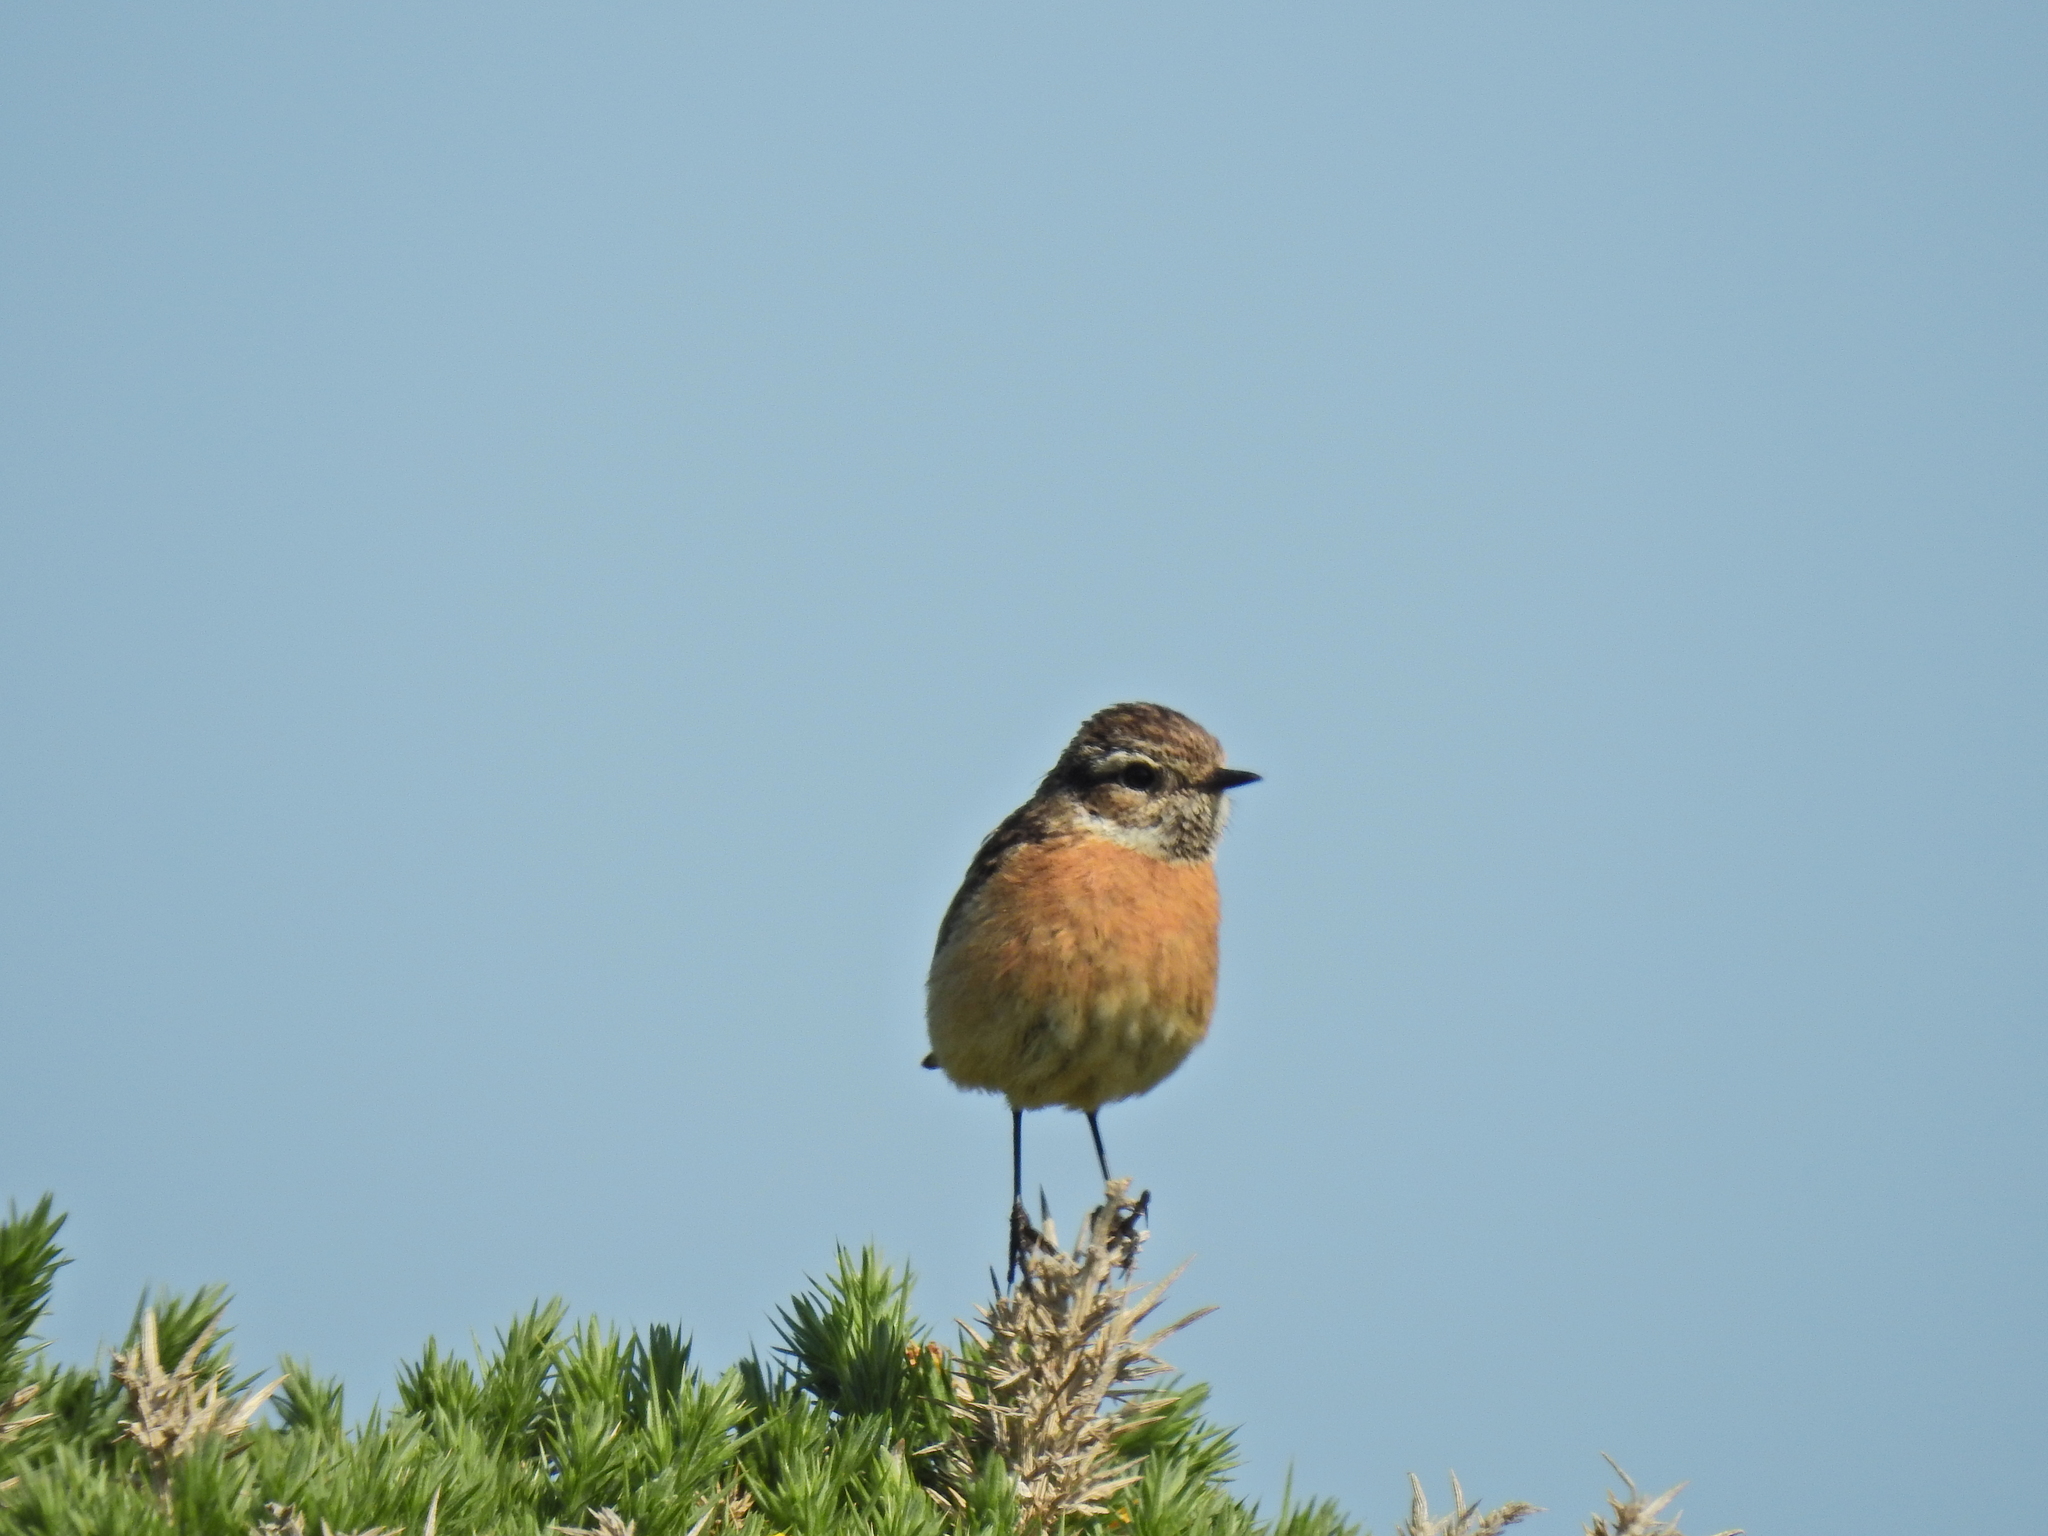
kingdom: Animalia
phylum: Chordata
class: Aves
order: Passeriformes
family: Muscicapidae
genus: Saxicola
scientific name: Saxicola rubicola
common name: European stonechat
